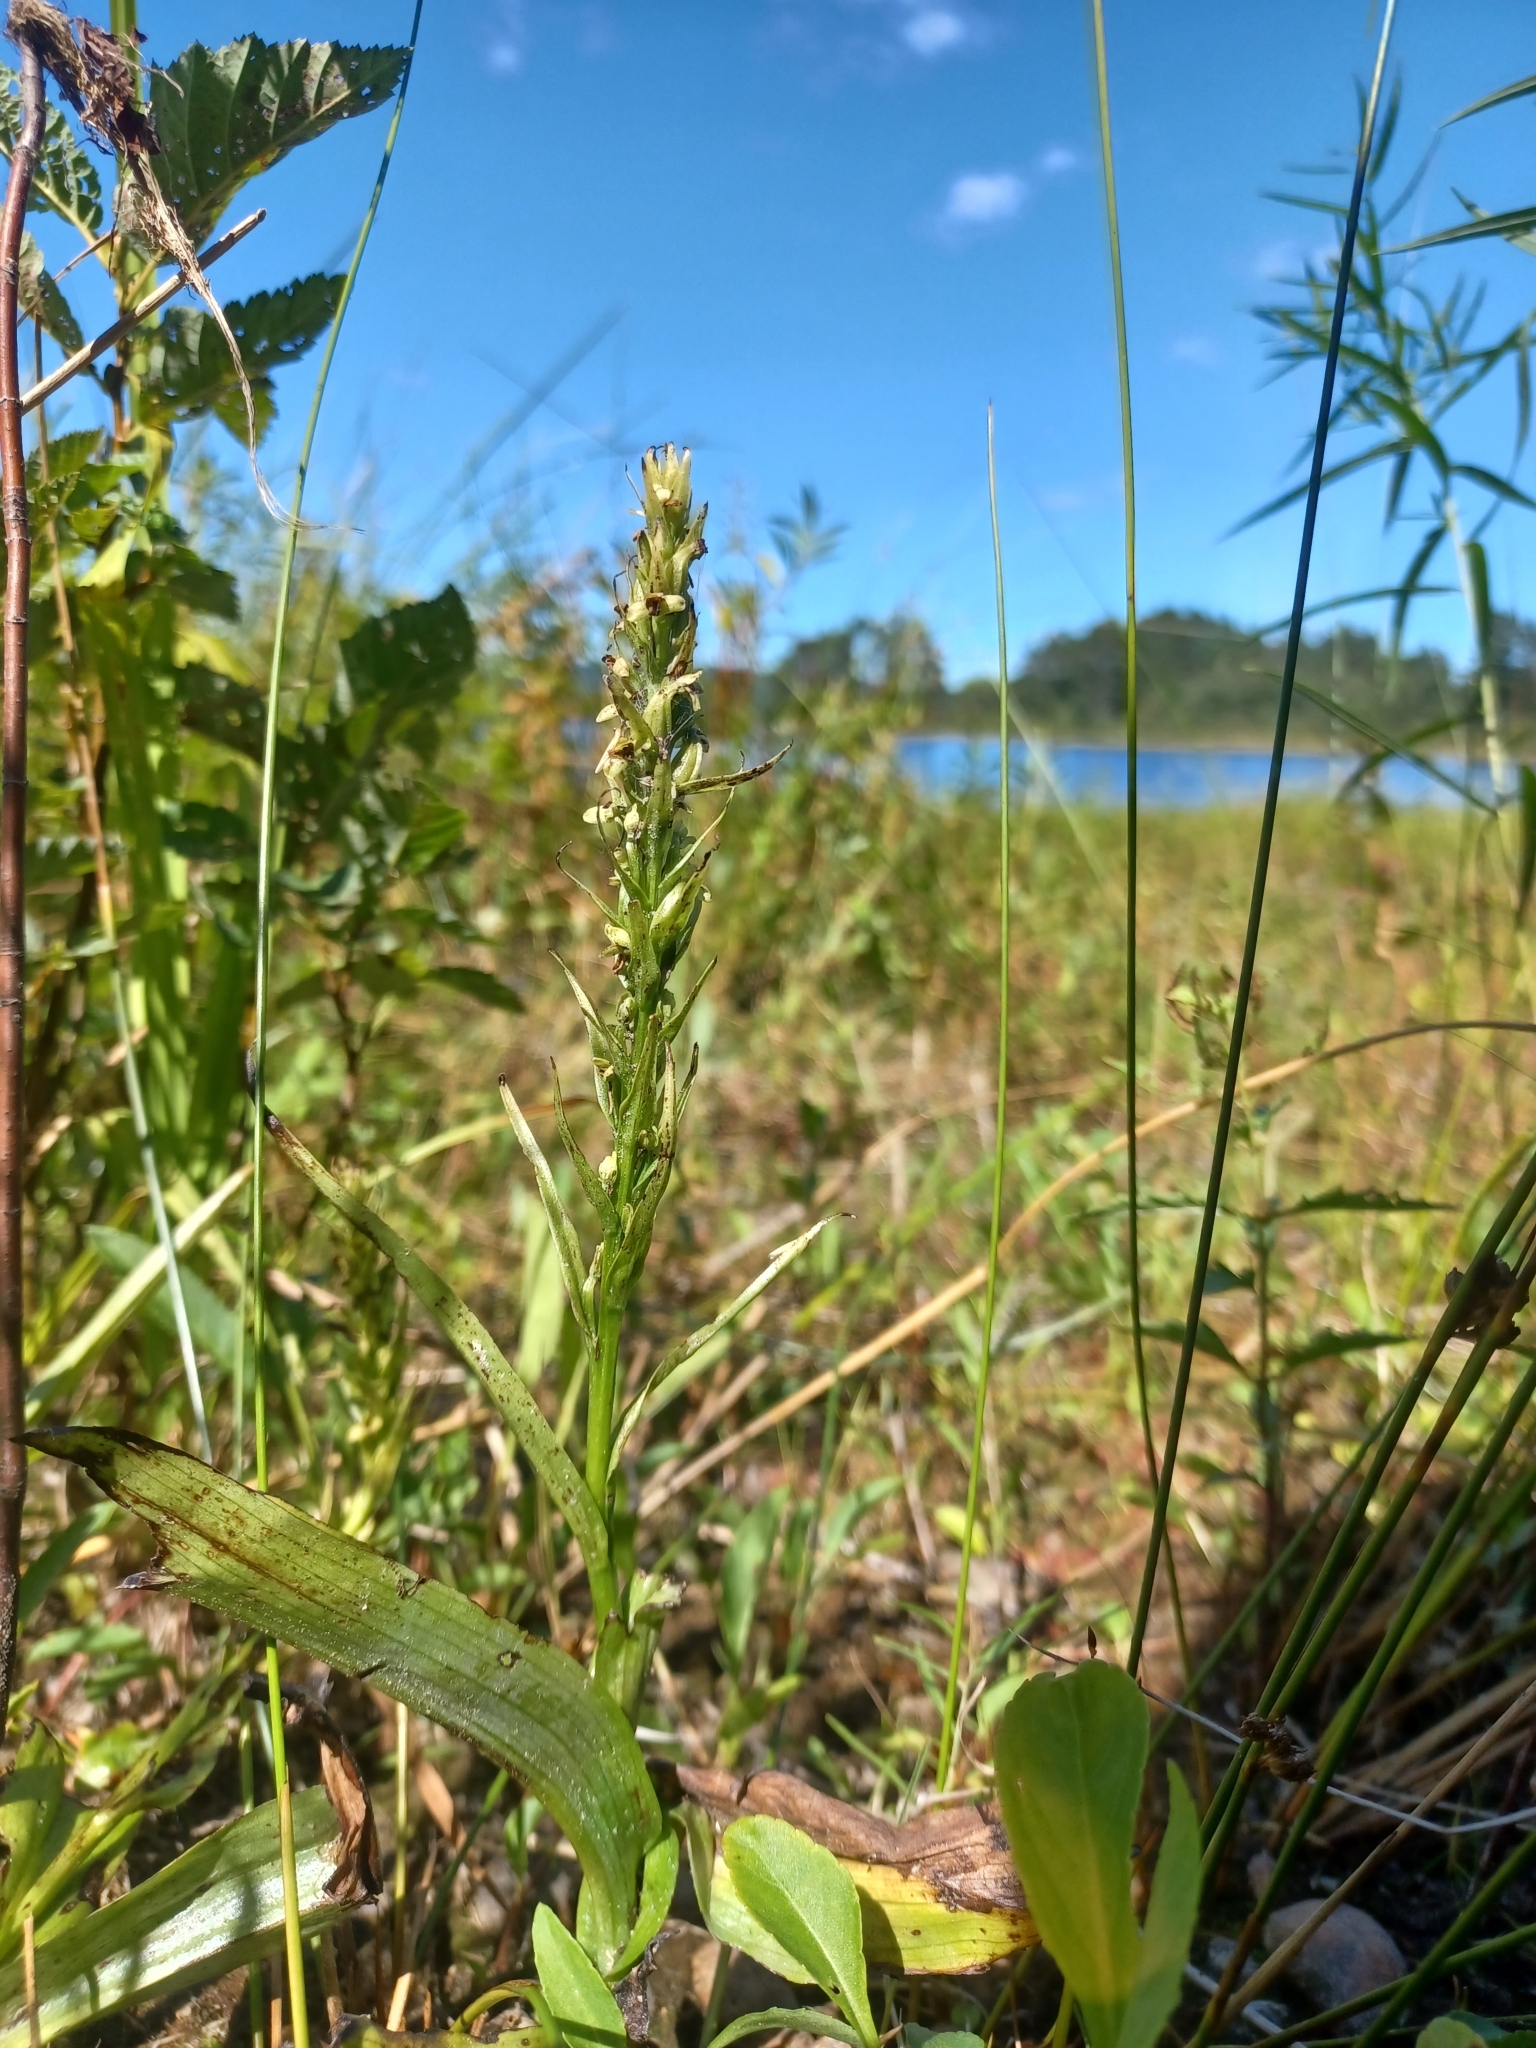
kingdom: Plantae
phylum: Tracheophyta
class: Liliopsida
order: Asparagales
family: Orchidaceae
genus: Platanthera
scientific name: Platanthera flava
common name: Gypsy-spikes
